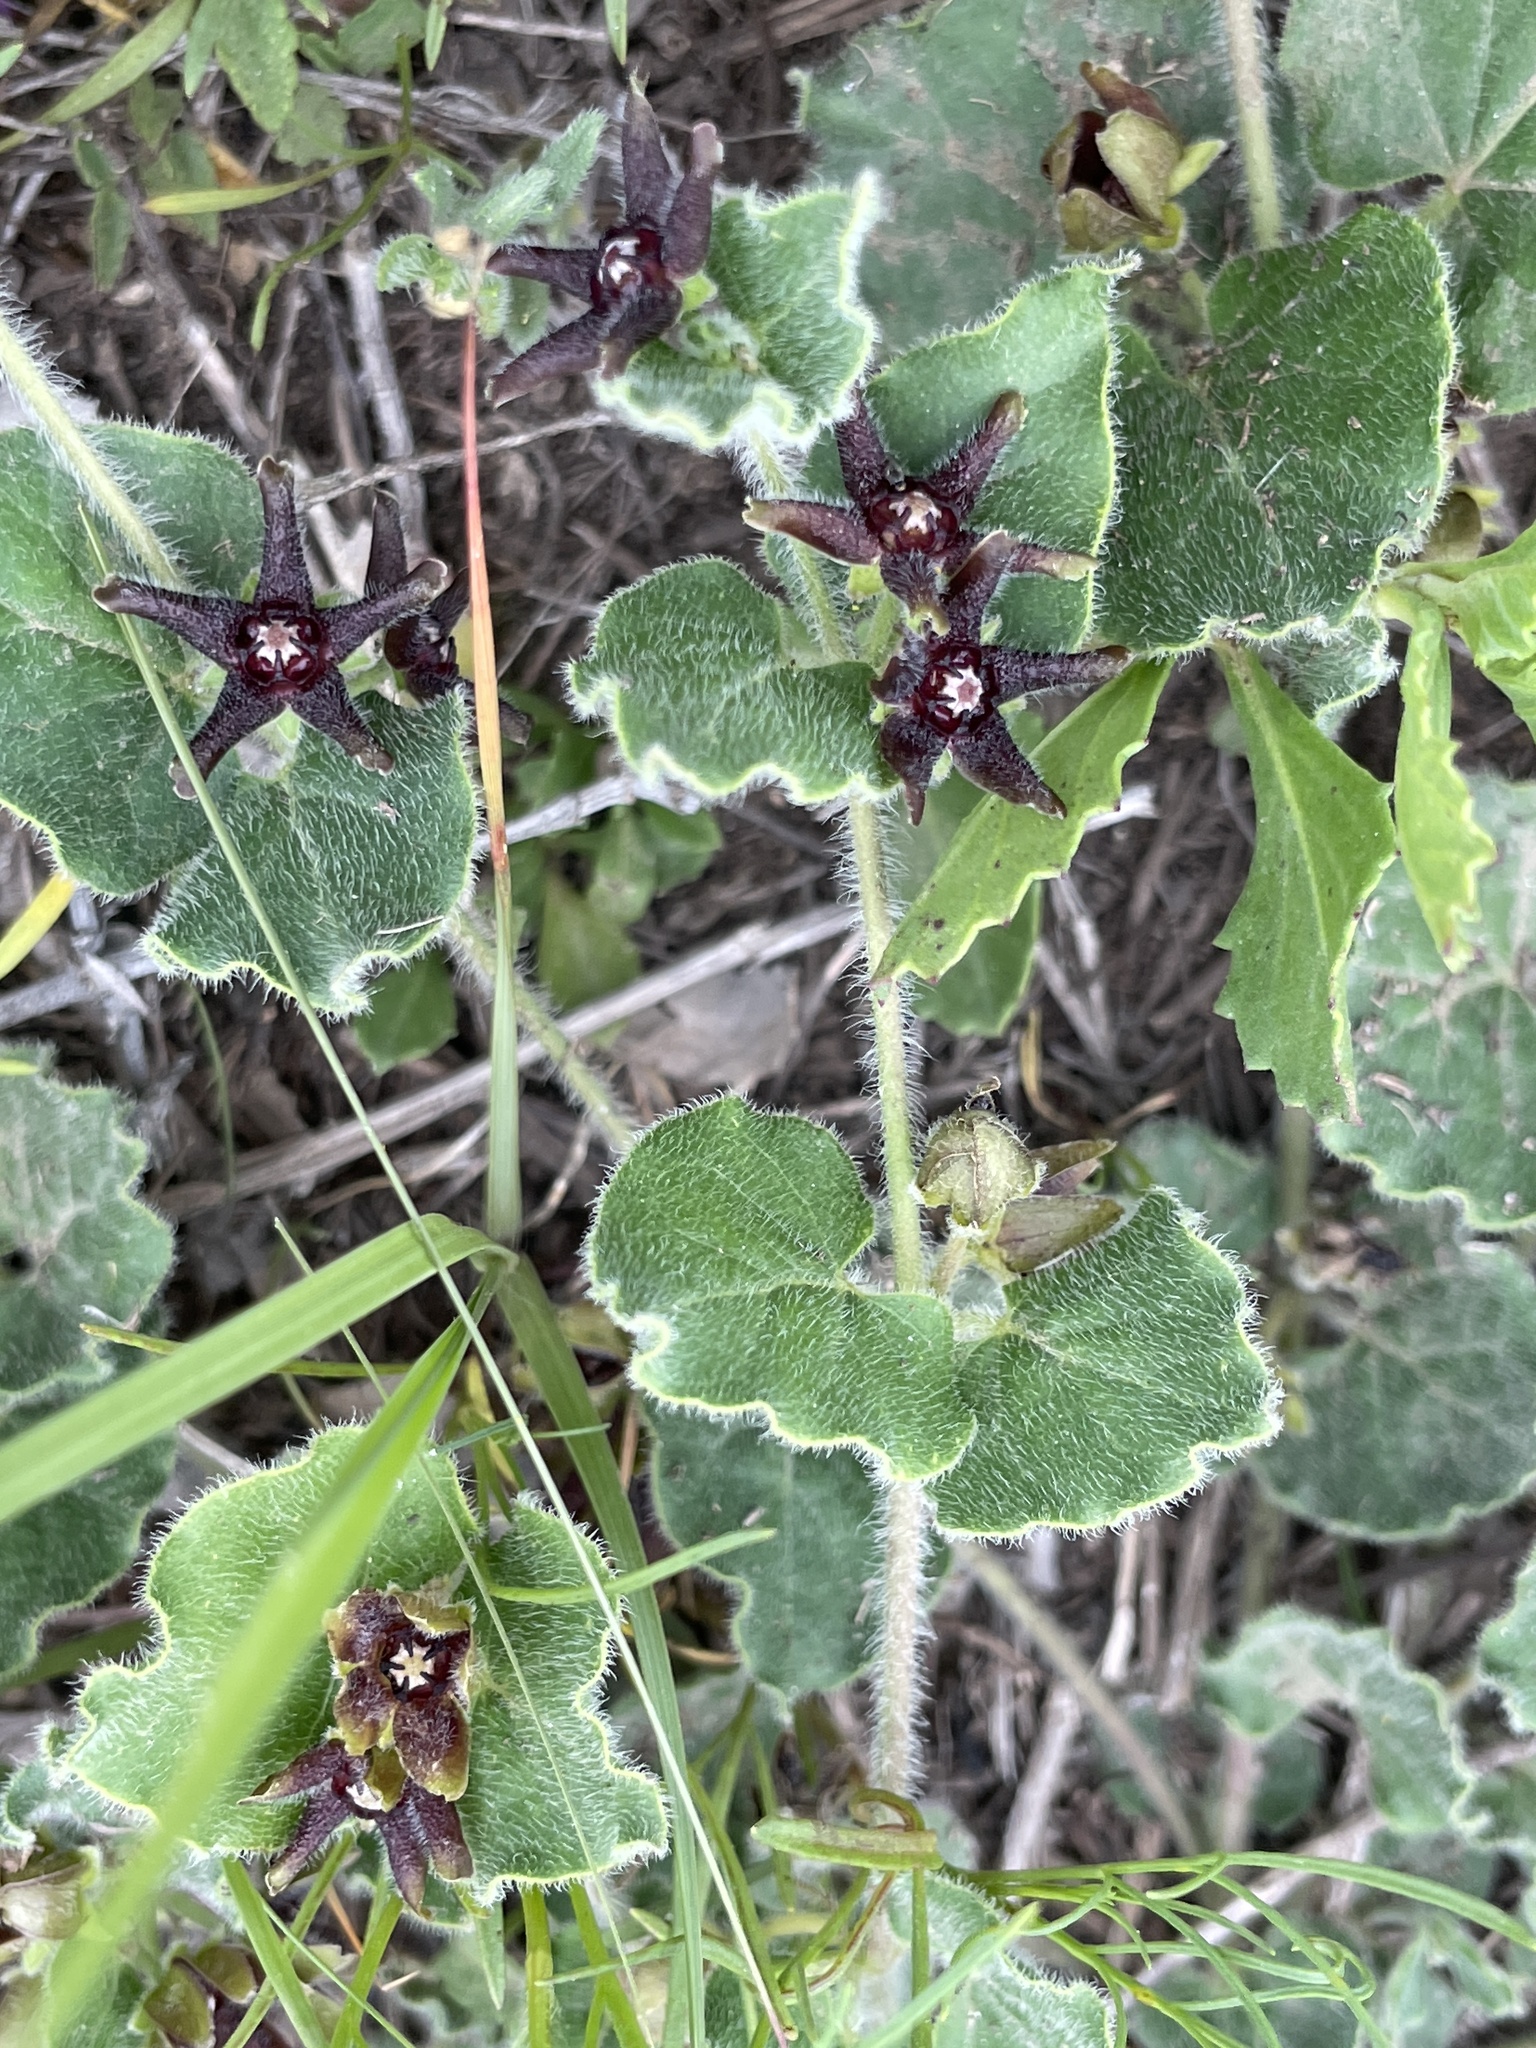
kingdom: Plantae
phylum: Tracheophyta
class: Magnoliopsida
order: Gentianales
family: Apocynaceae
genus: Chthamalia
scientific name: Chthamalia biflora
